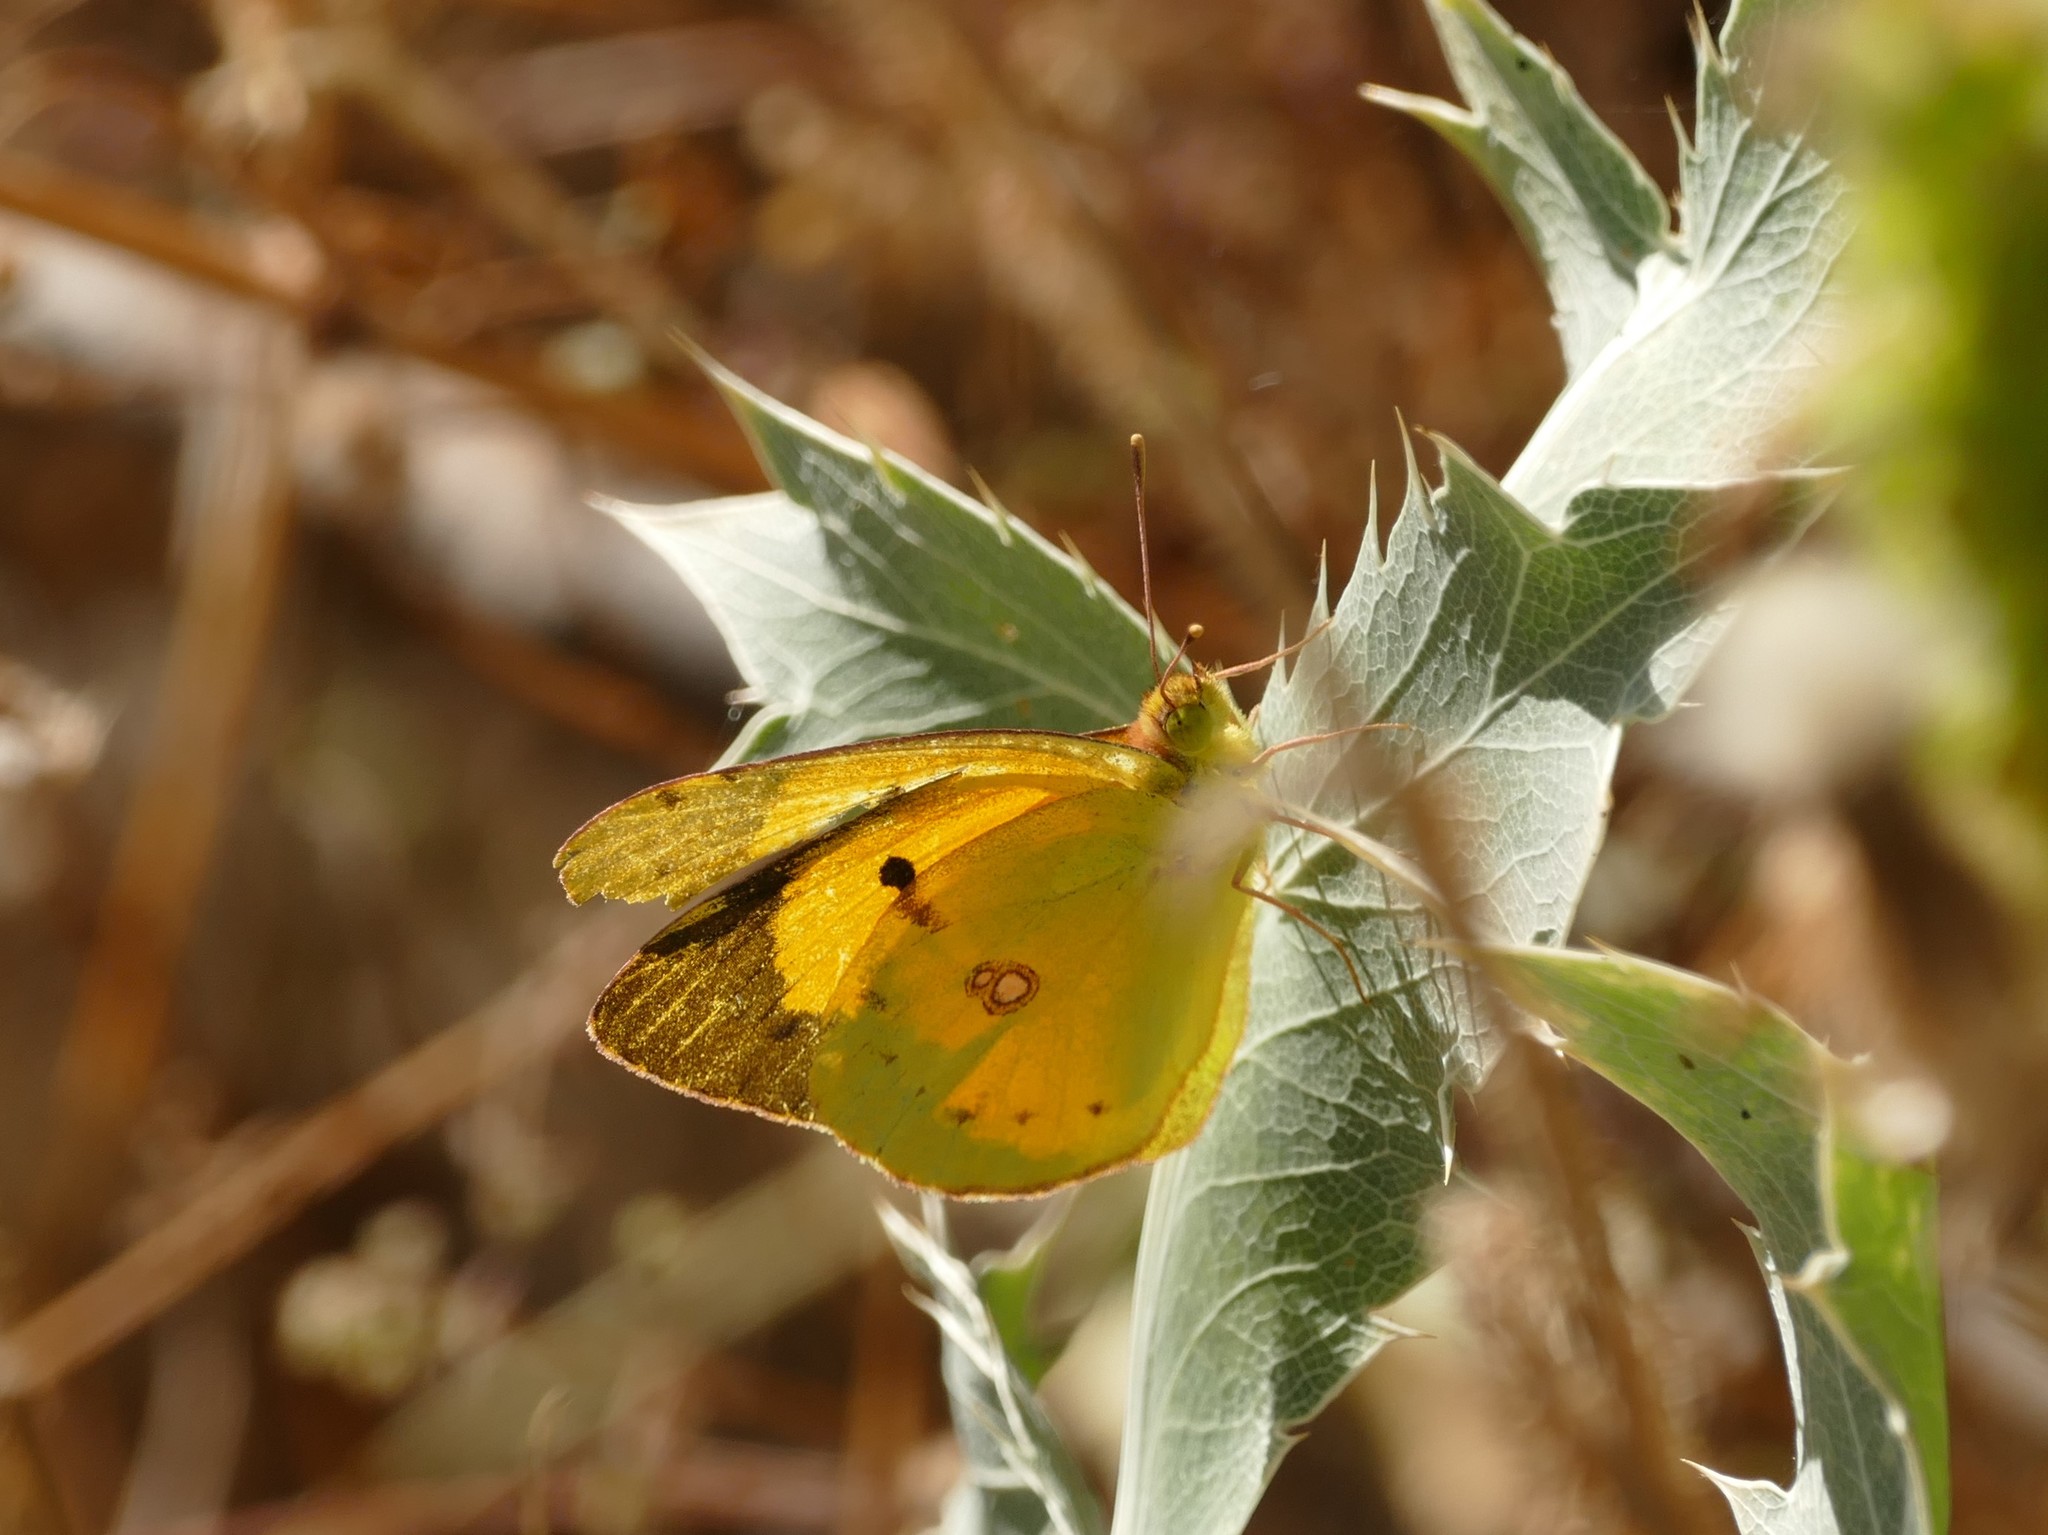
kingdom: Animalia
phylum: Arthropoda
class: Insecta
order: Lepidoptera
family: Pieridae
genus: Colias
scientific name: Colias croceus
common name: Clouded yellow
